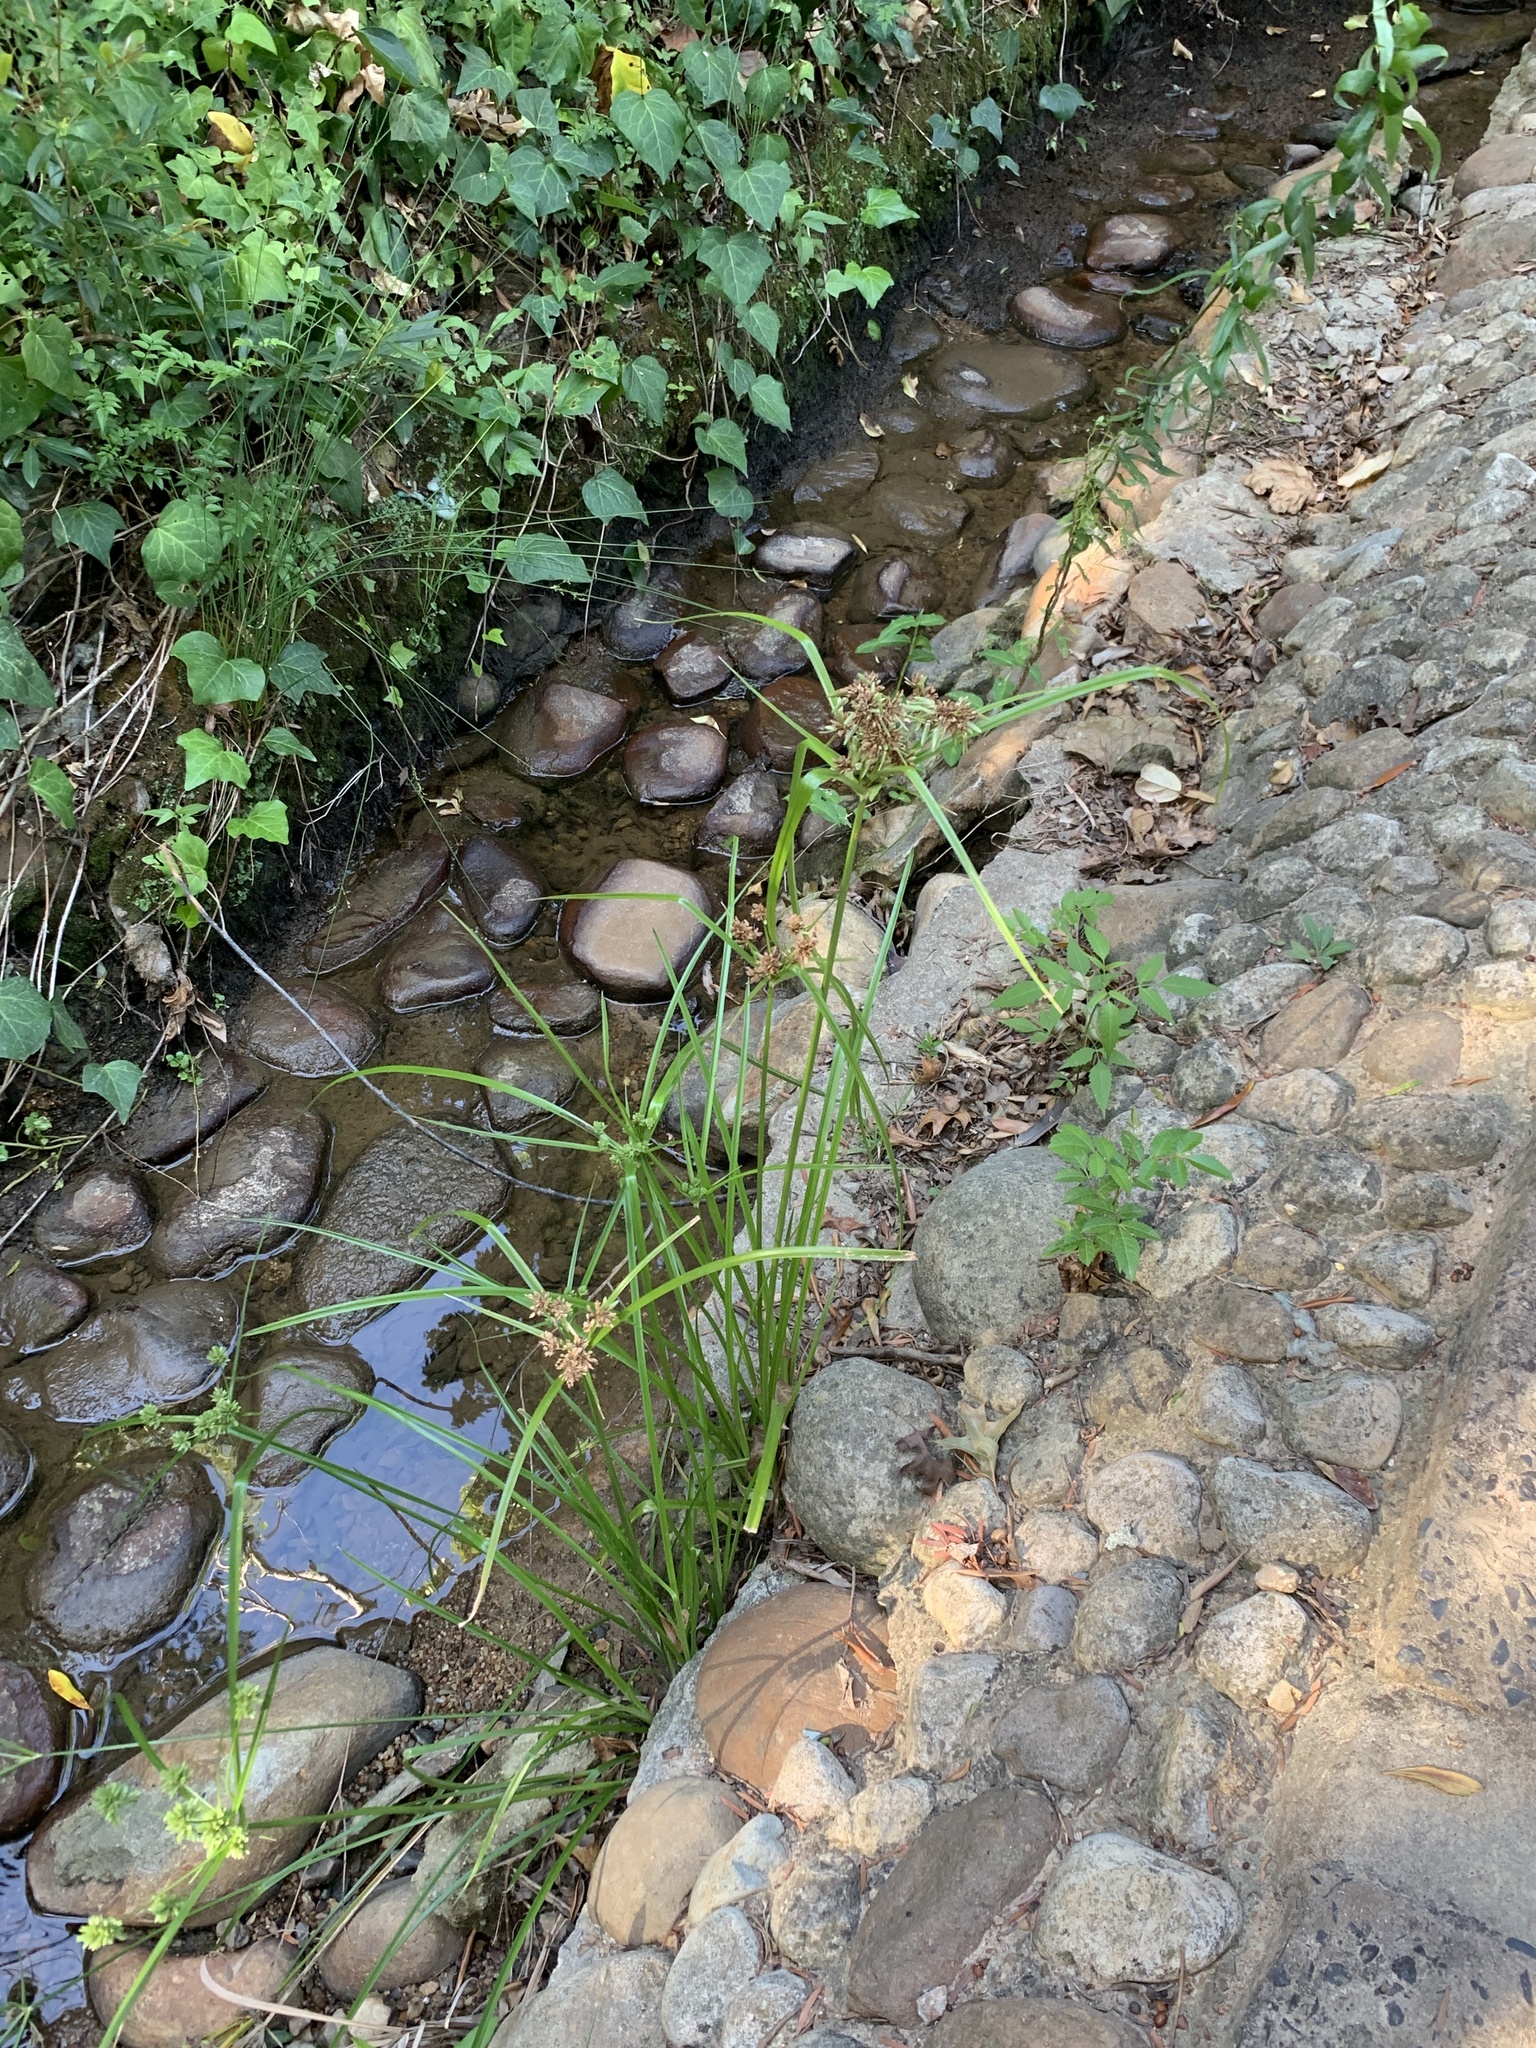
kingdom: Plantae
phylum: Tracheophyta
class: Liliopsida
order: Poales
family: Cyperaceae
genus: Cyperus
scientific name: Cyperus eragrostis
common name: Tall flatsedge
